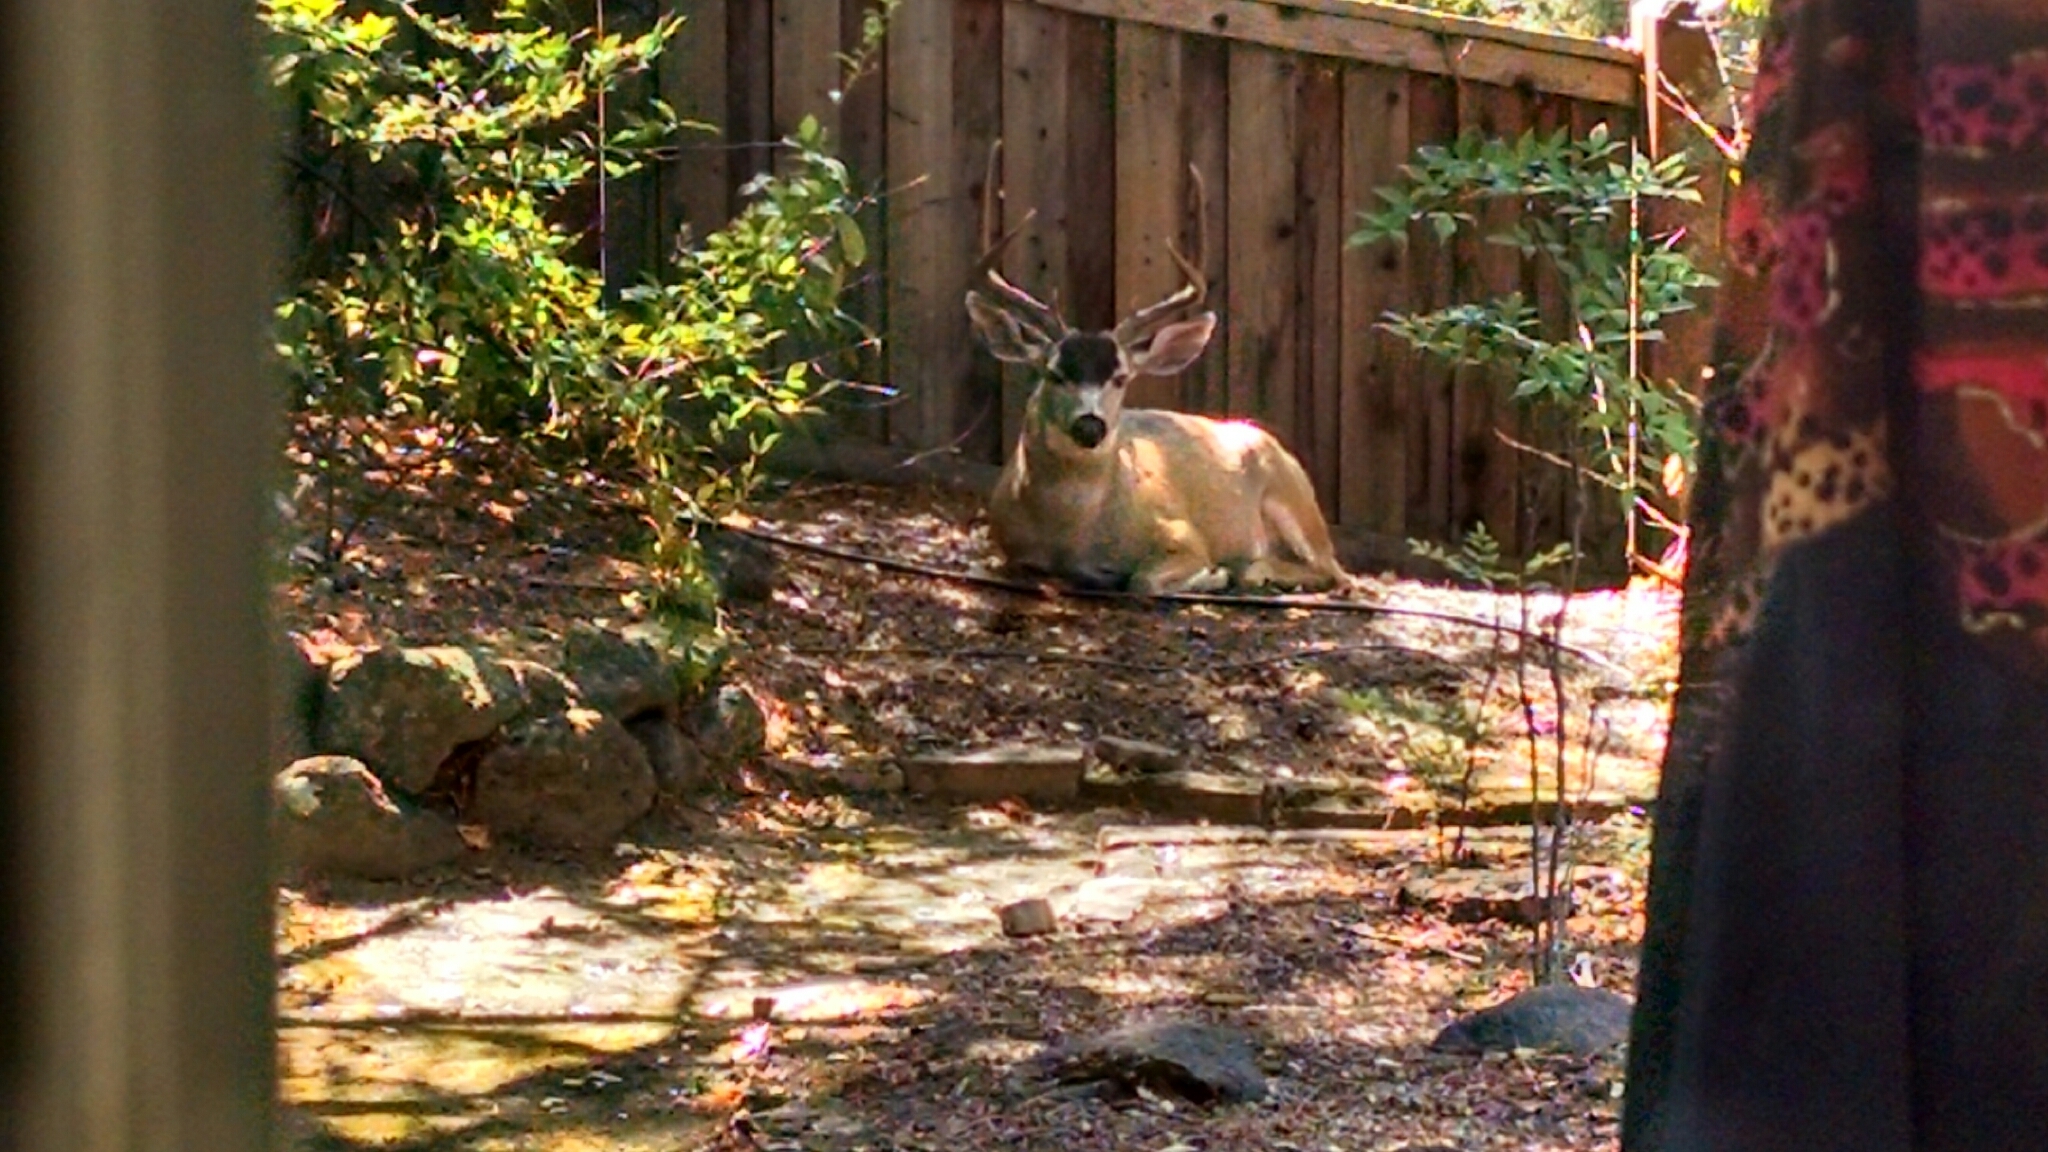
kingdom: Animalia
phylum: Chordata
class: Mammalia
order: Artiodactyla
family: Cervidae
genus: Odocoileus
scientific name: Odocoileus hemionus
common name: Mule deer
